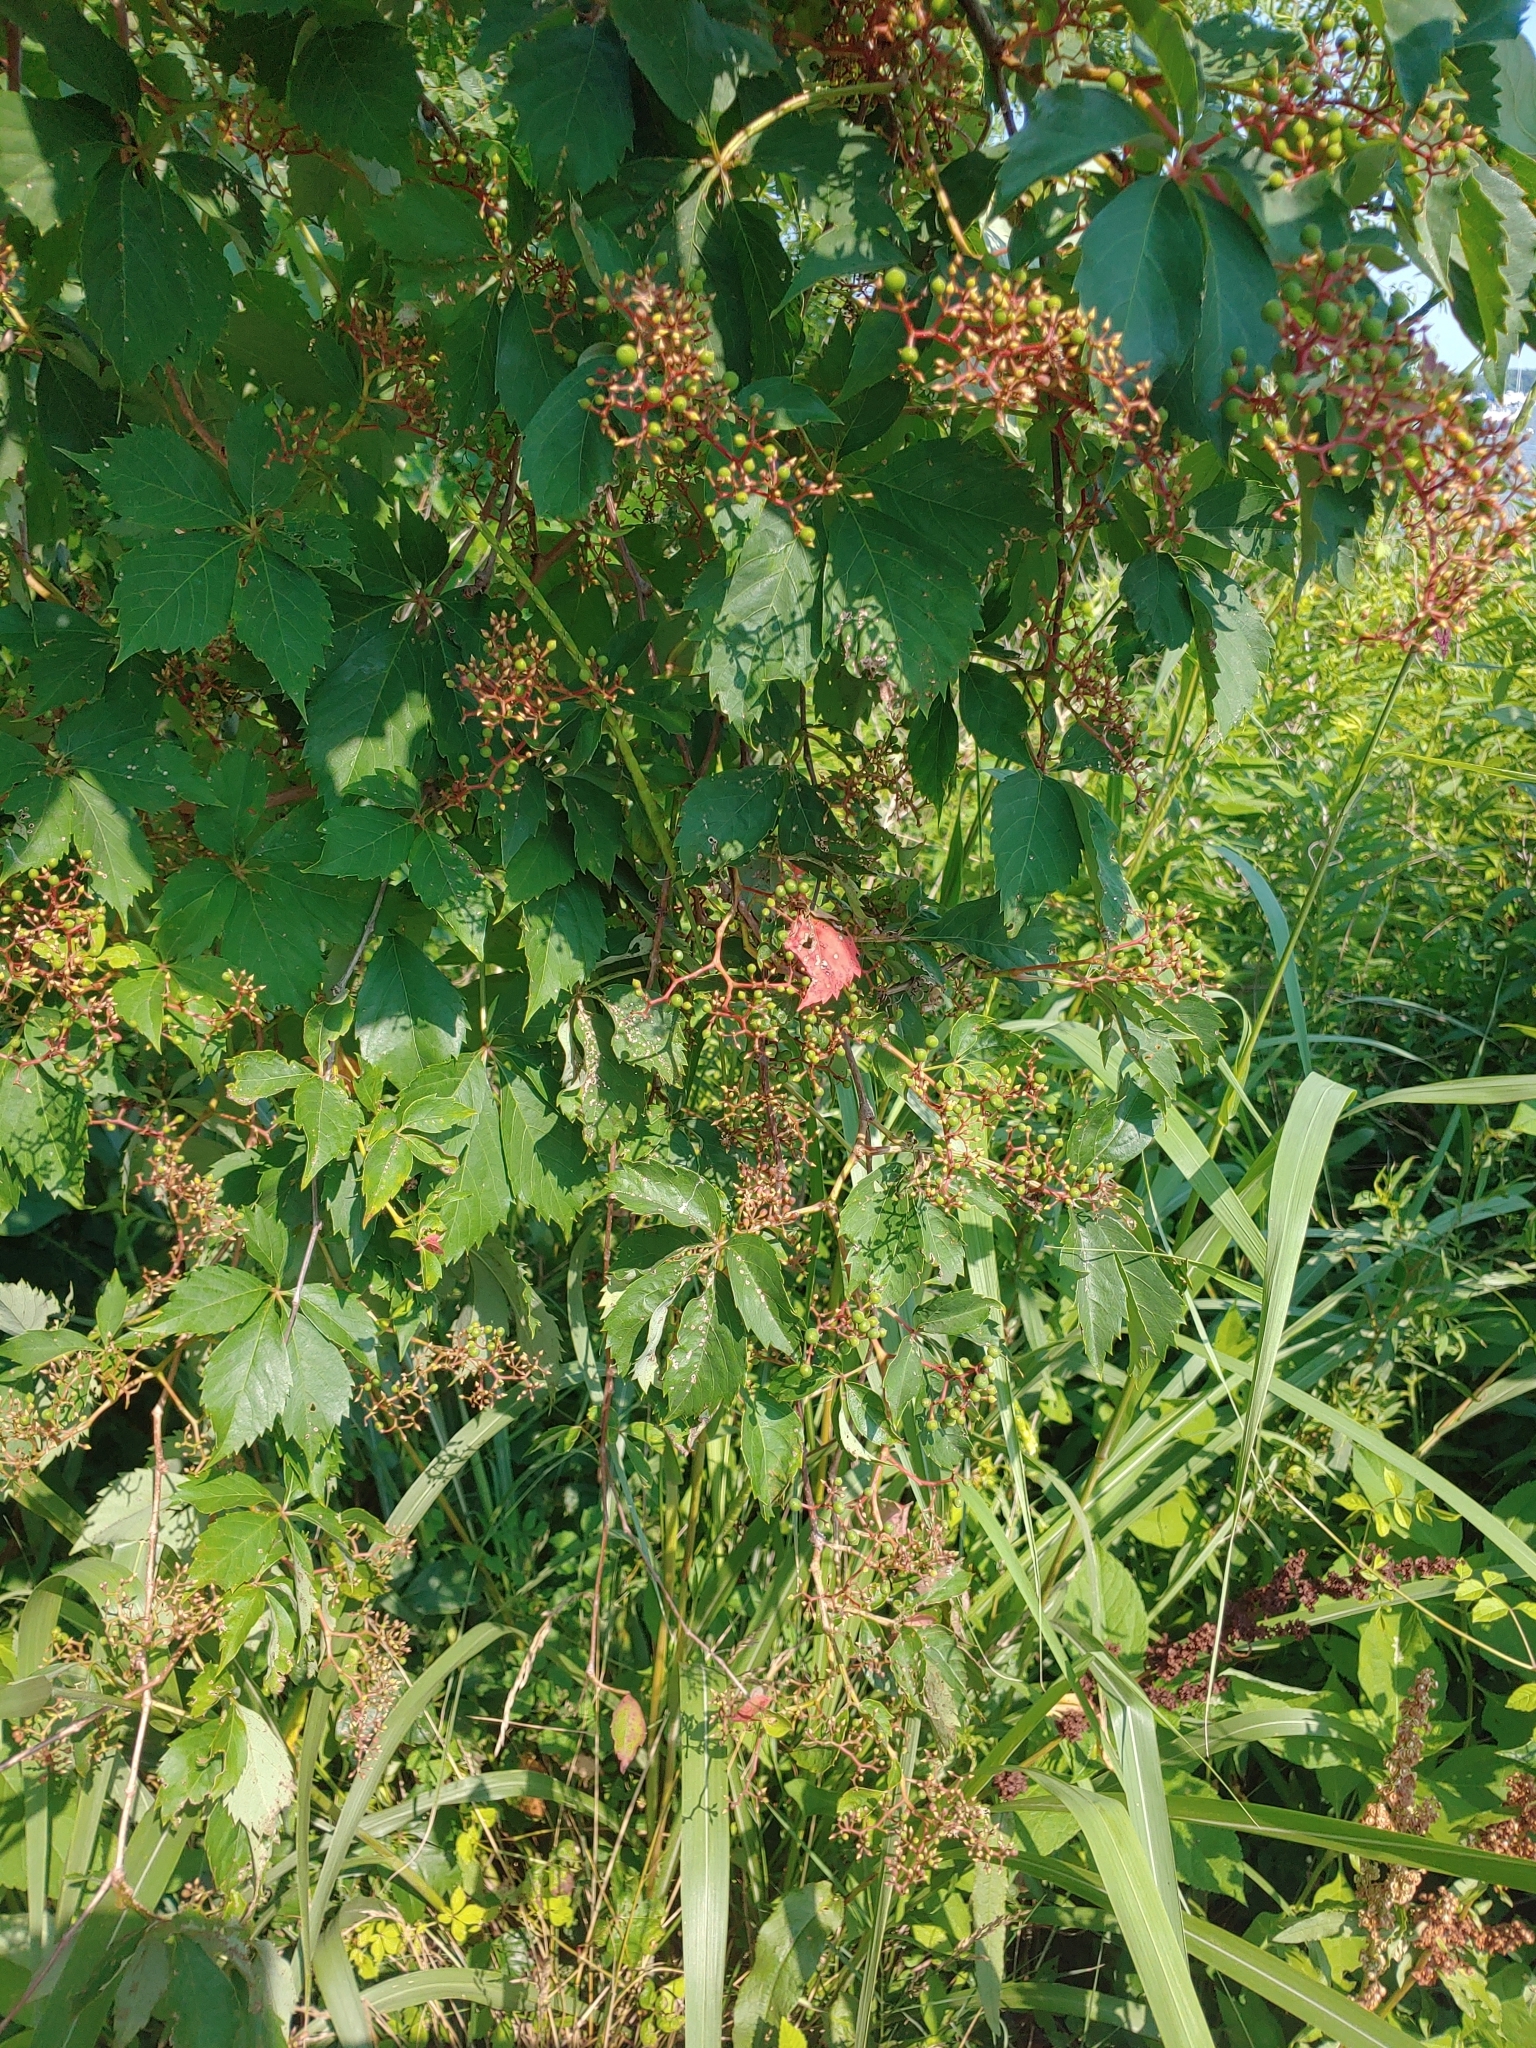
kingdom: Plantae
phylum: Tracheophyta
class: Magnoliopsida
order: Vitales
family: Vitaceae
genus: Parthenocissus
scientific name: Parthenocissus quinquefolia
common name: Virginia-creeper
